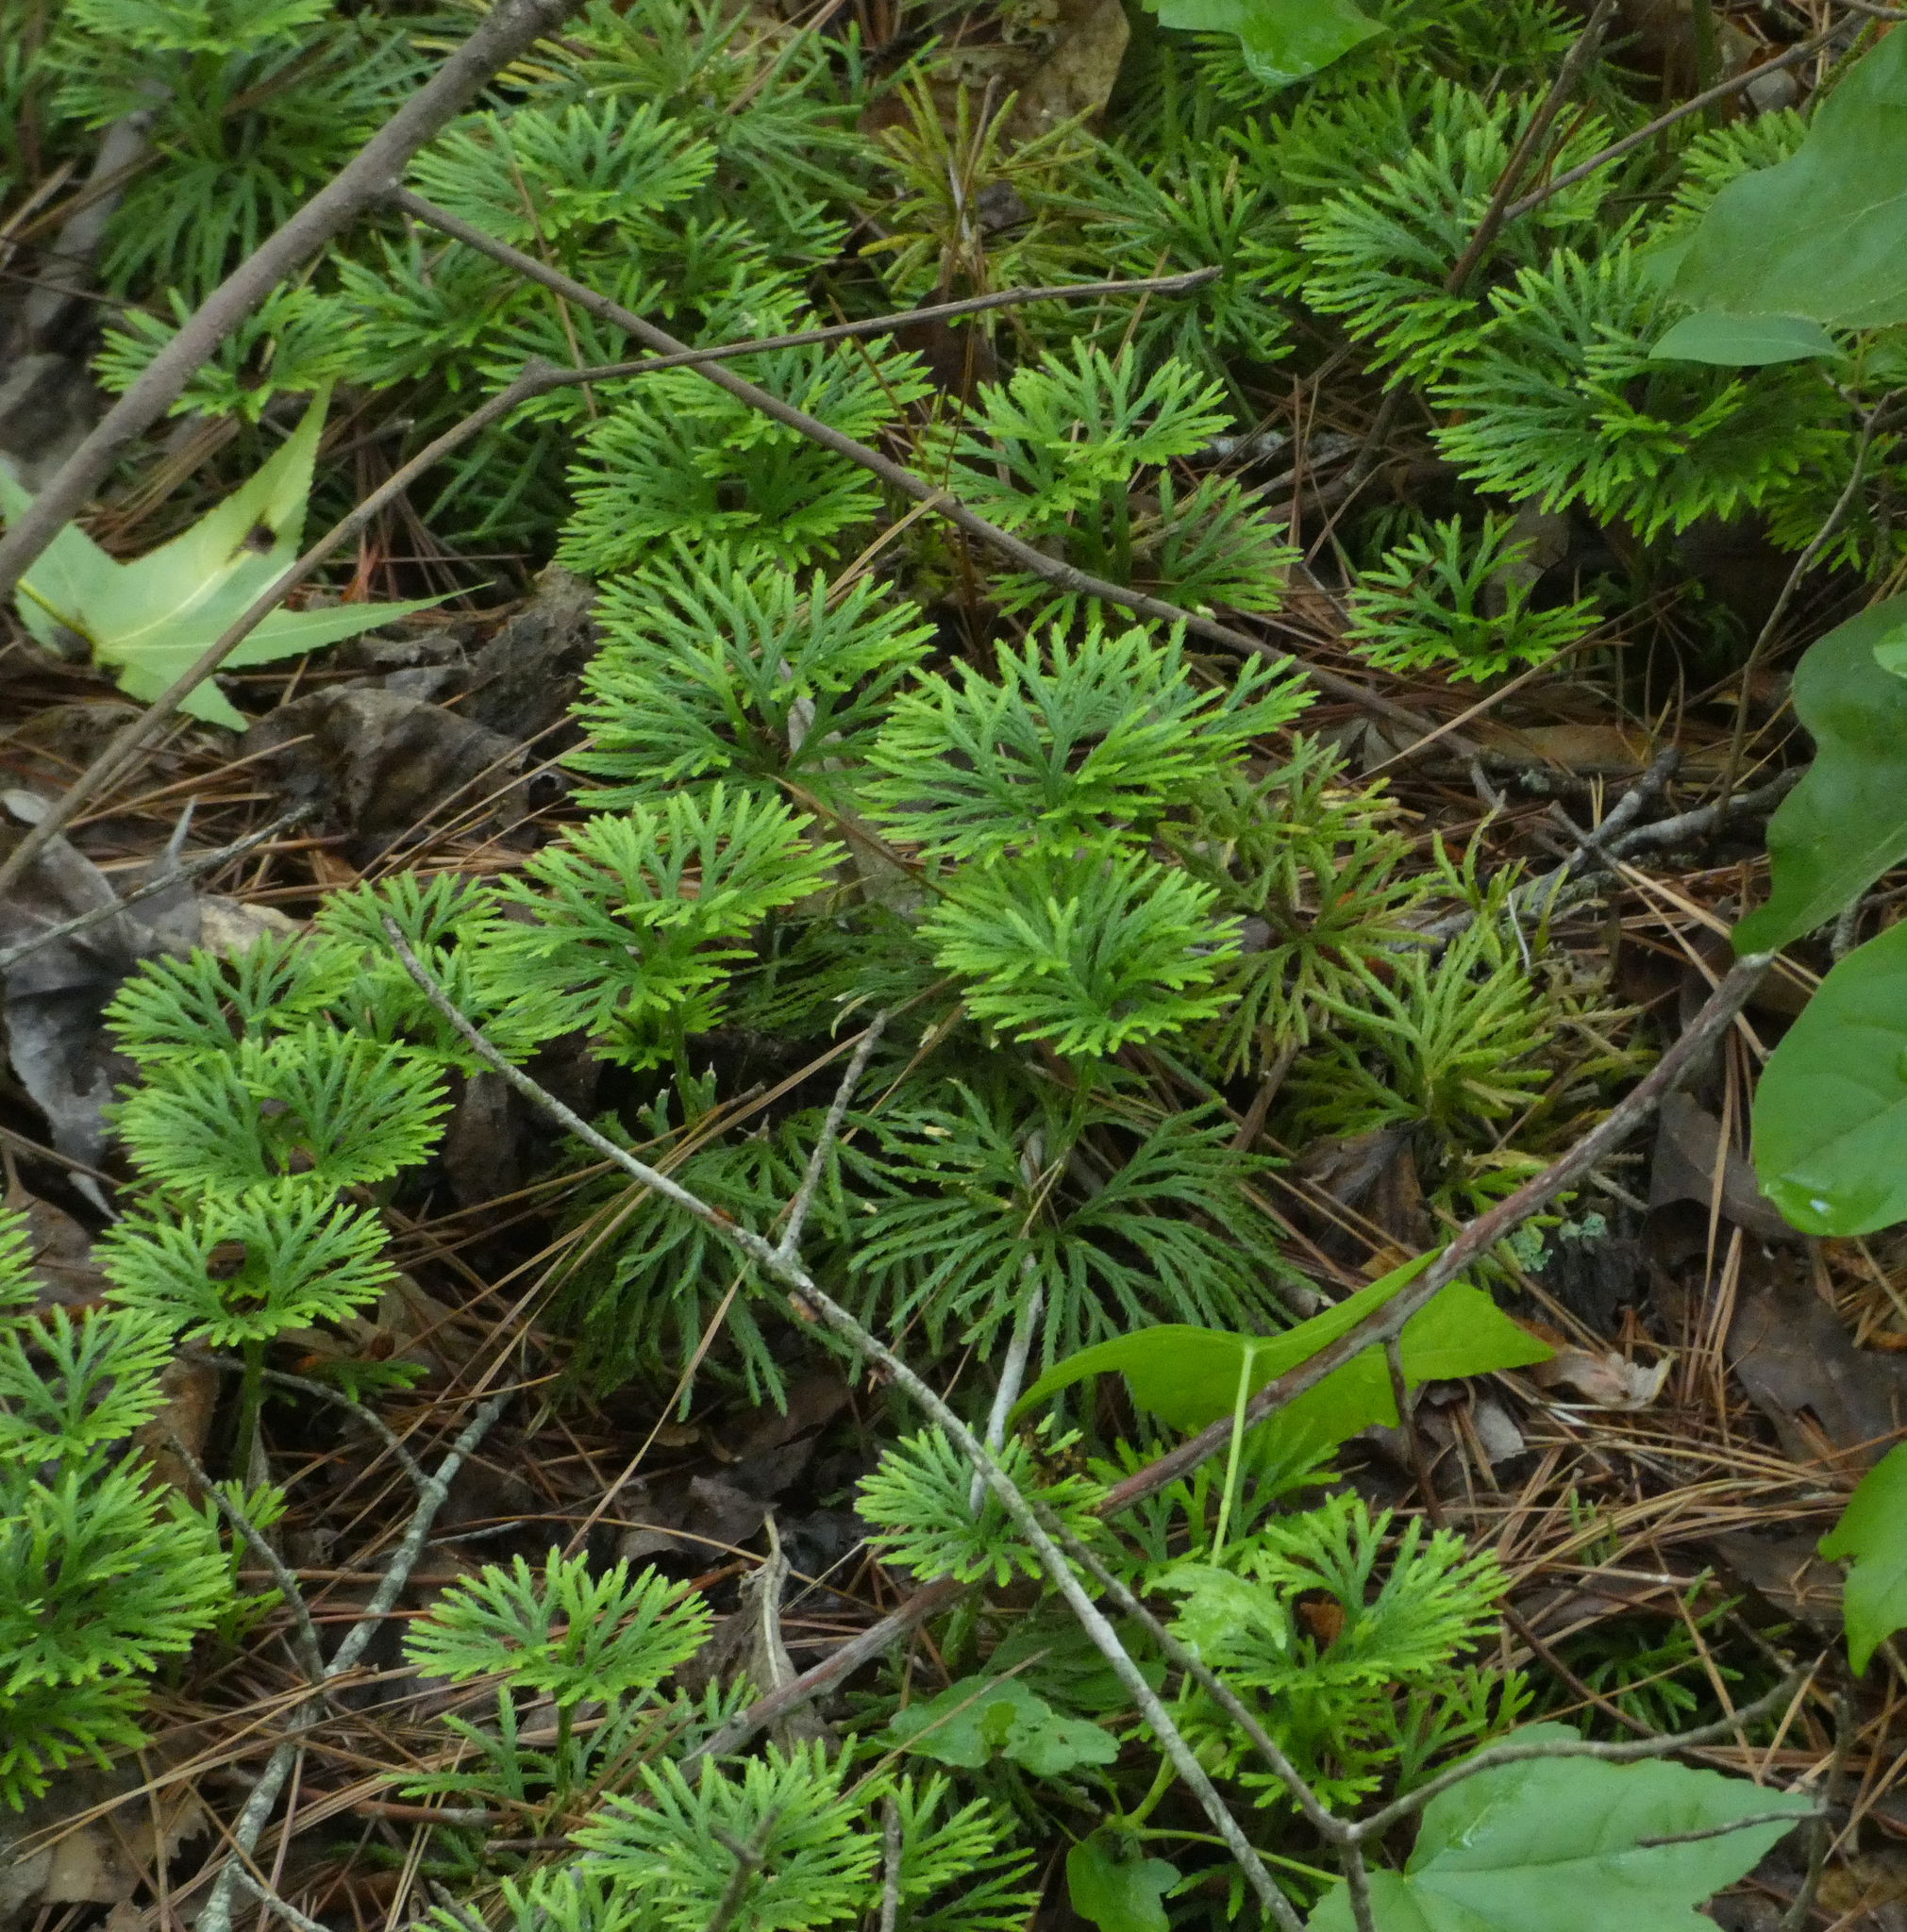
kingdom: Plantae
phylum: Tracheophyta
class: Lycopodiopsida
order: Lycopodiales
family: Lycopodiaceae
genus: Diphasiastrum
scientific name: Diphasiastrum digitatum
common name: Southern running-pine
